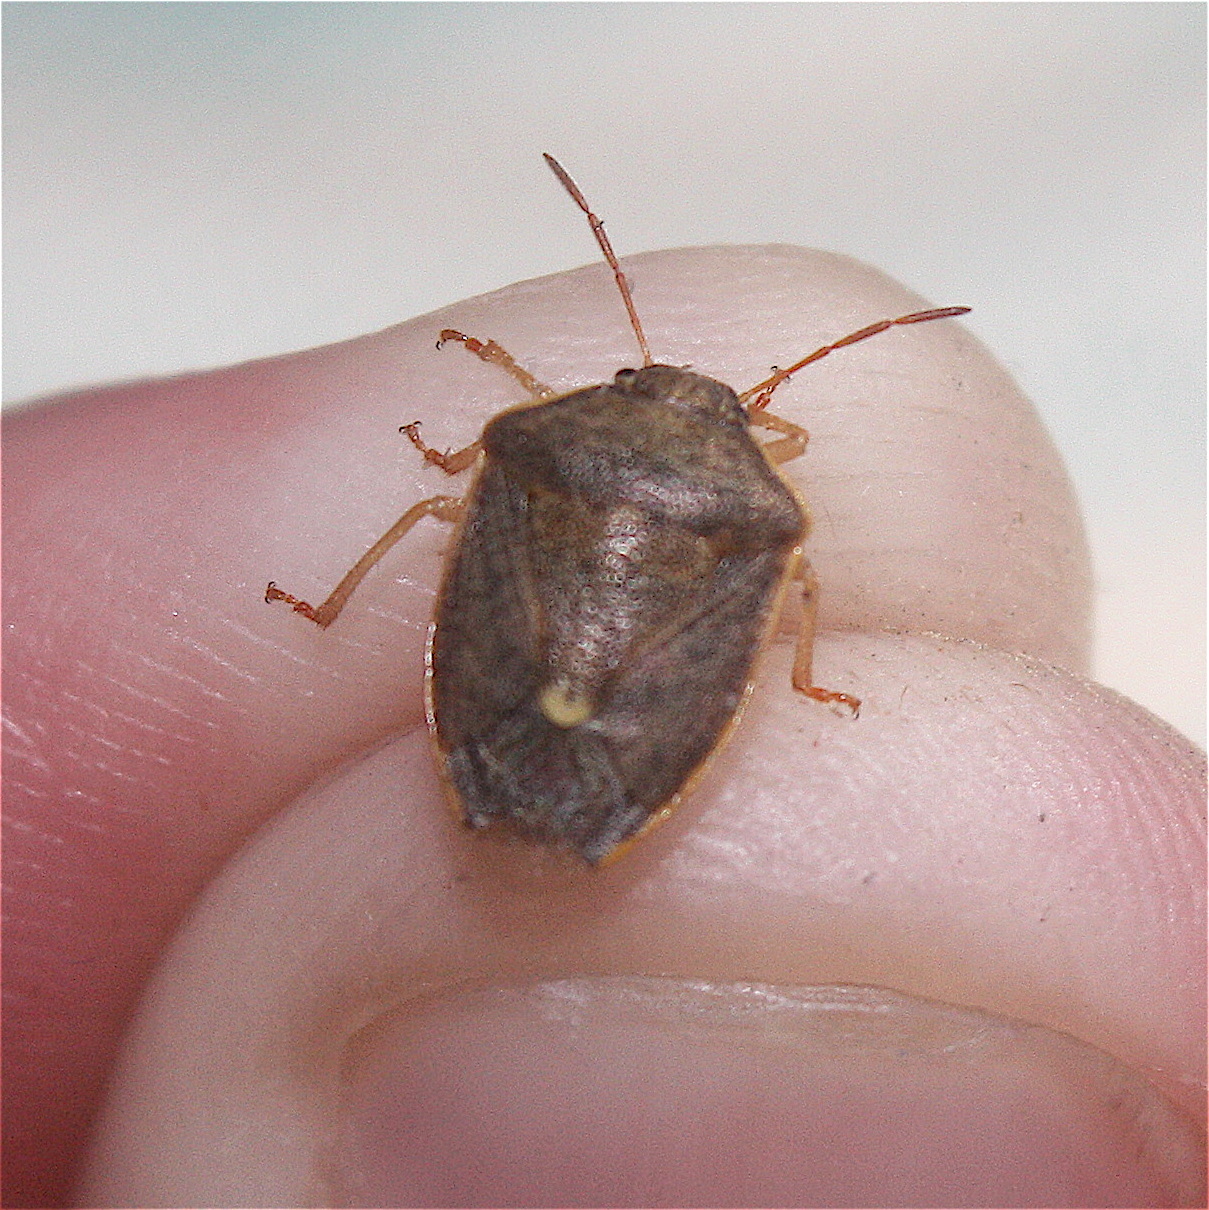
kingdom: Animalia
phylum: Arthropoda
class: Insecta
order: Hemiptera
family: Pentatomidae
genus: Holcostethus
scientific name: Holcostethus limbolarius
